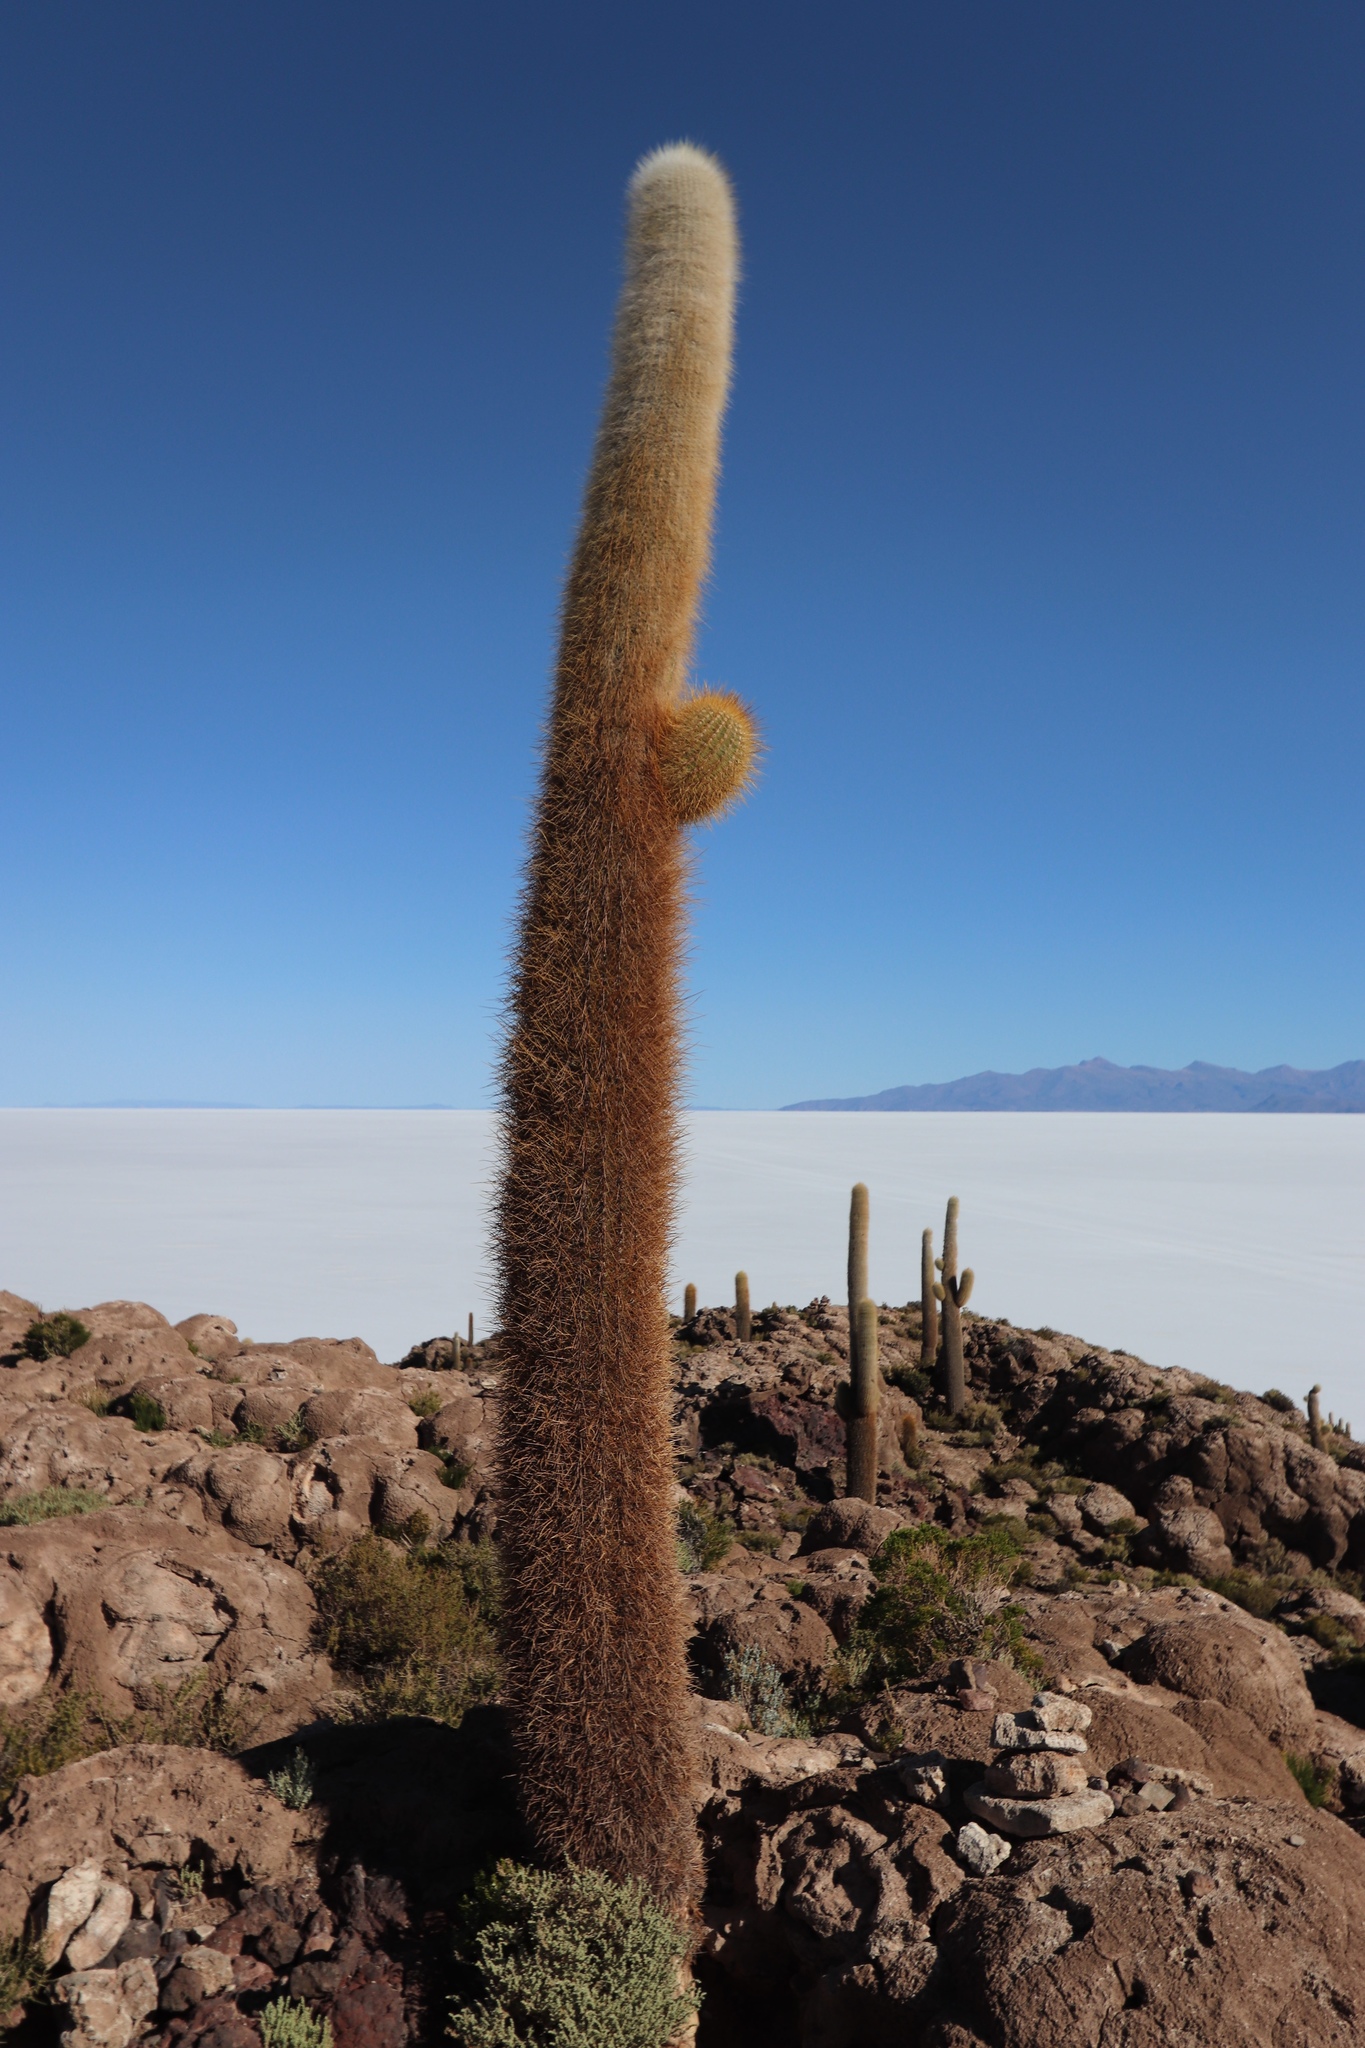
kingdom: Plantae
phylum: Tracheophyta
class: Magnoliopsida
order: Caryophyllales
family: Cactaceae
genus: Leucostele
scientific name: Leucostele atacamensis
